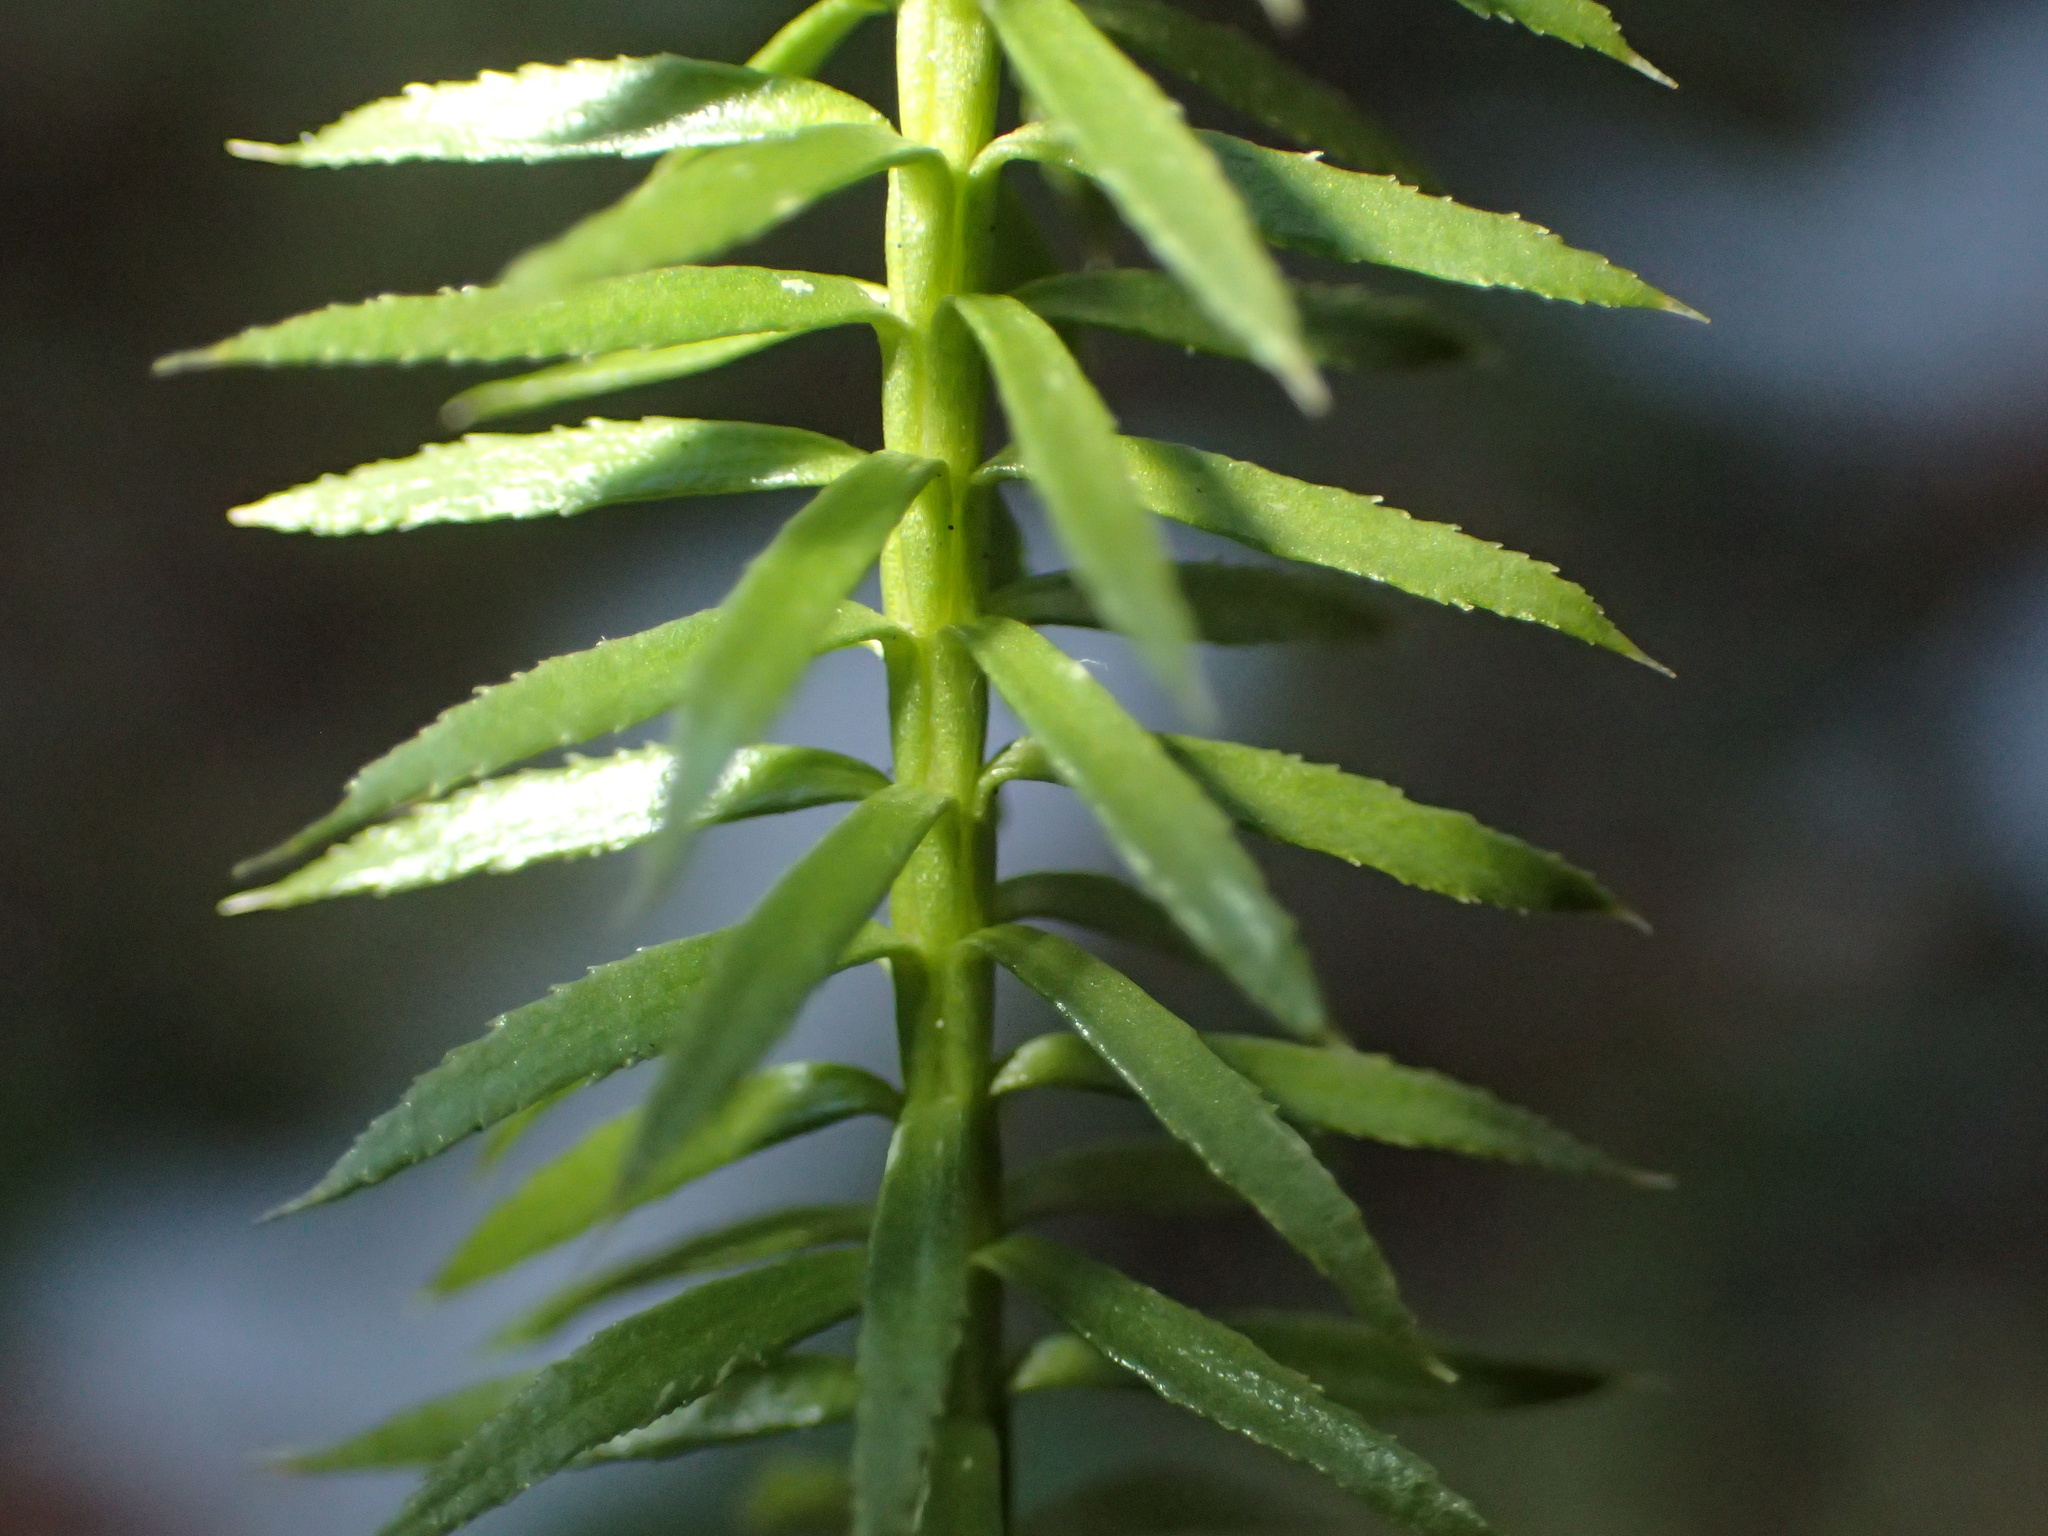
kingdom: Plantae
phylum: Tracheophyta
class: Lycopodiopsida
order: Lycopodiales
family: Lycopodiaceae
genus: Spinulum
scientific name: Spinulum annotinum
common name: Interrupted club-moss
